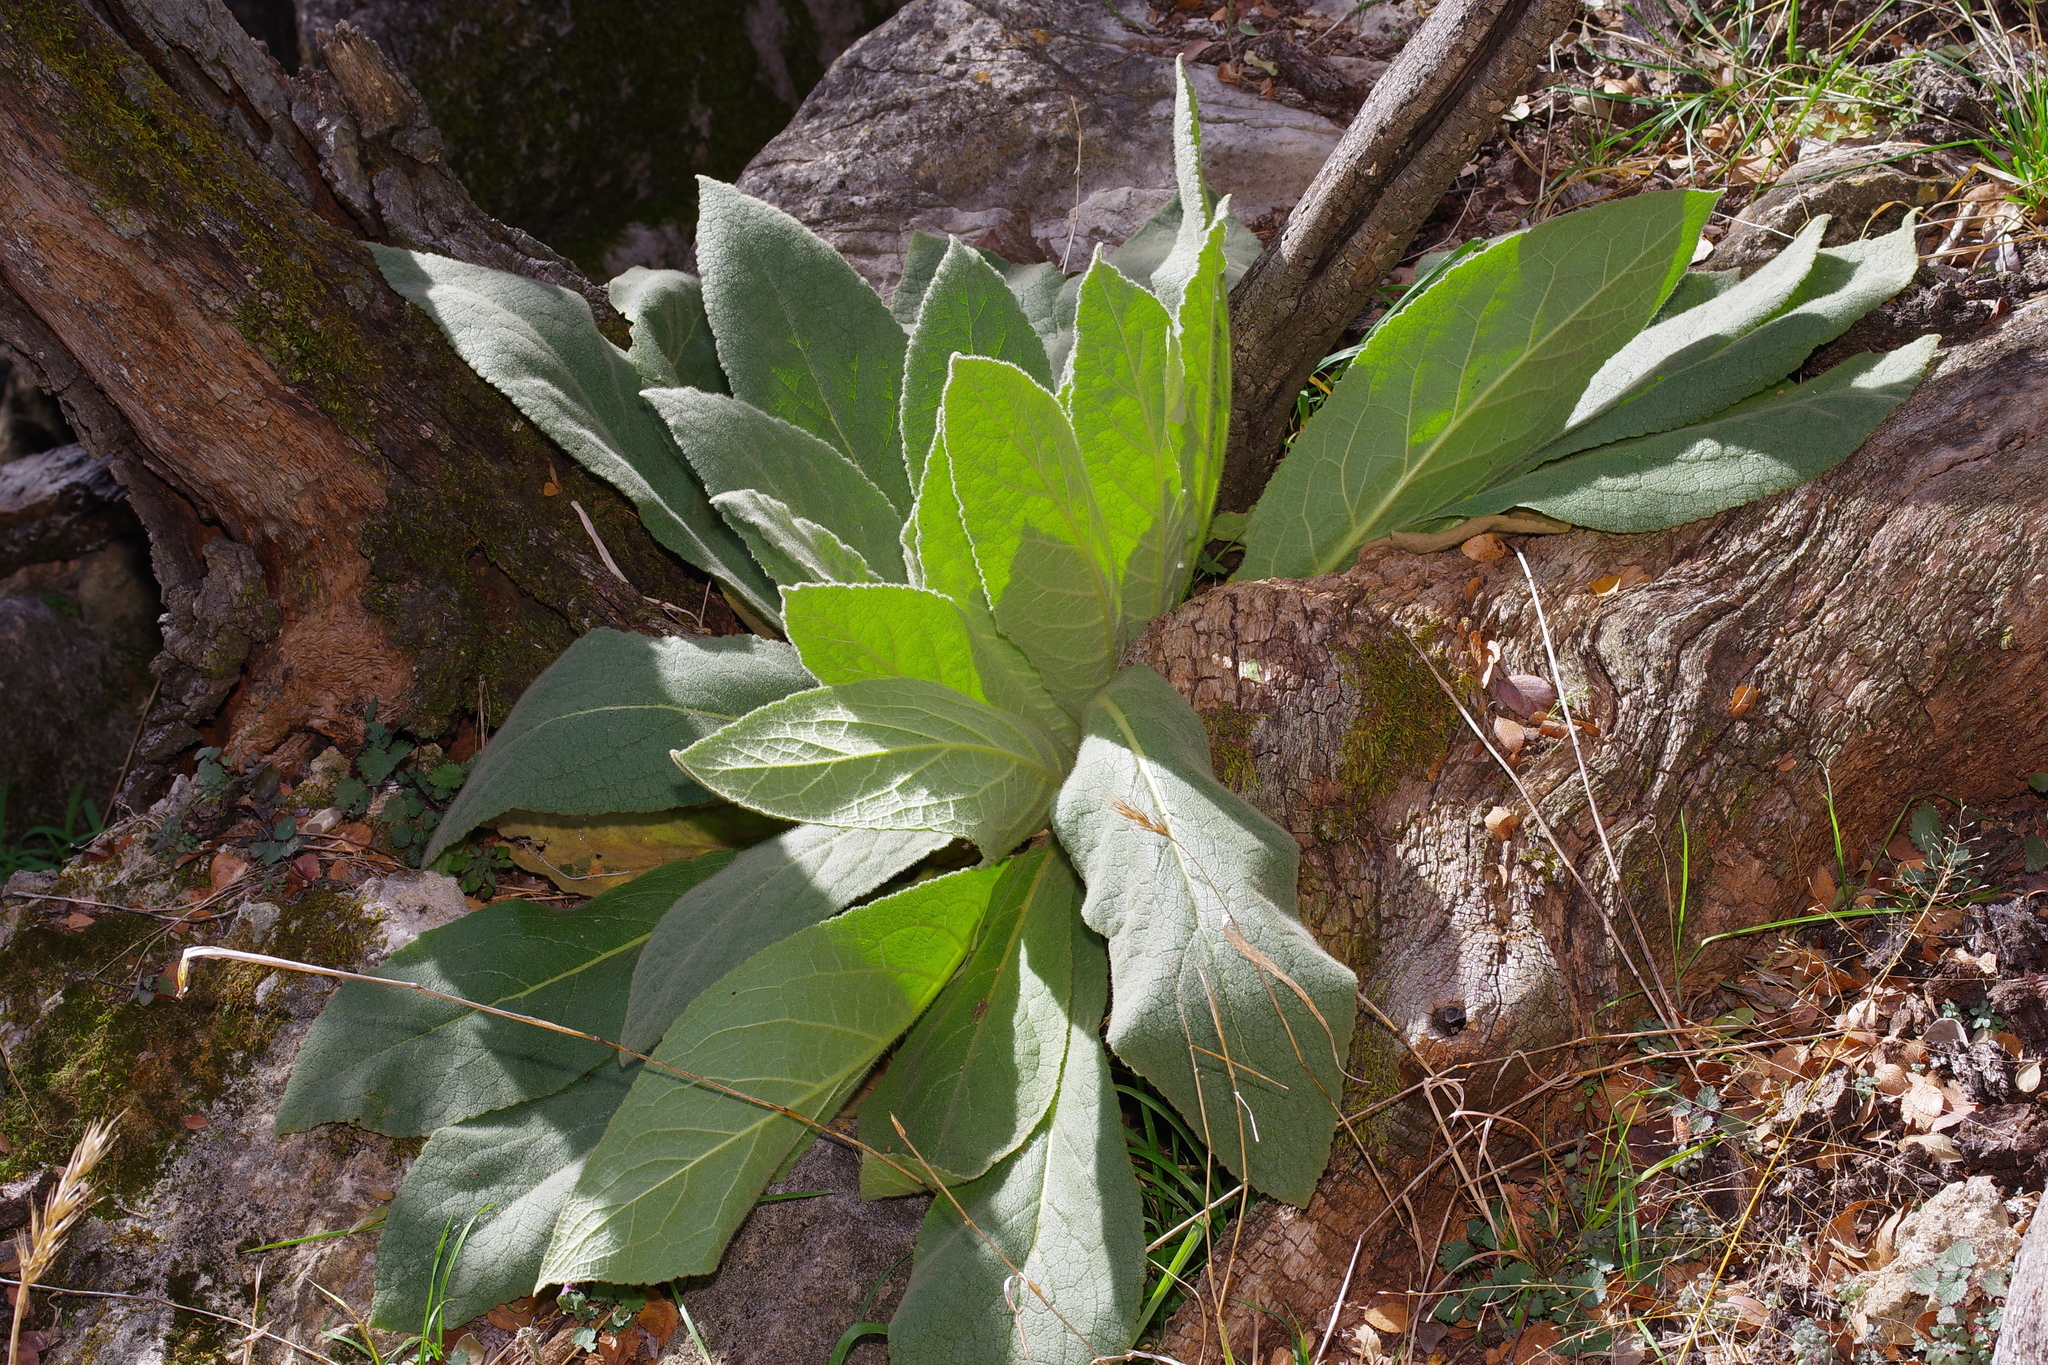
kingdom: Plantae
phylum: Tracheophyta
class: Magnoliopsida
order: Lamiales
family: Scrophulariaceae
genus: Verbascum
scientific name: Verbascum thapsus
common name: Common mullein
